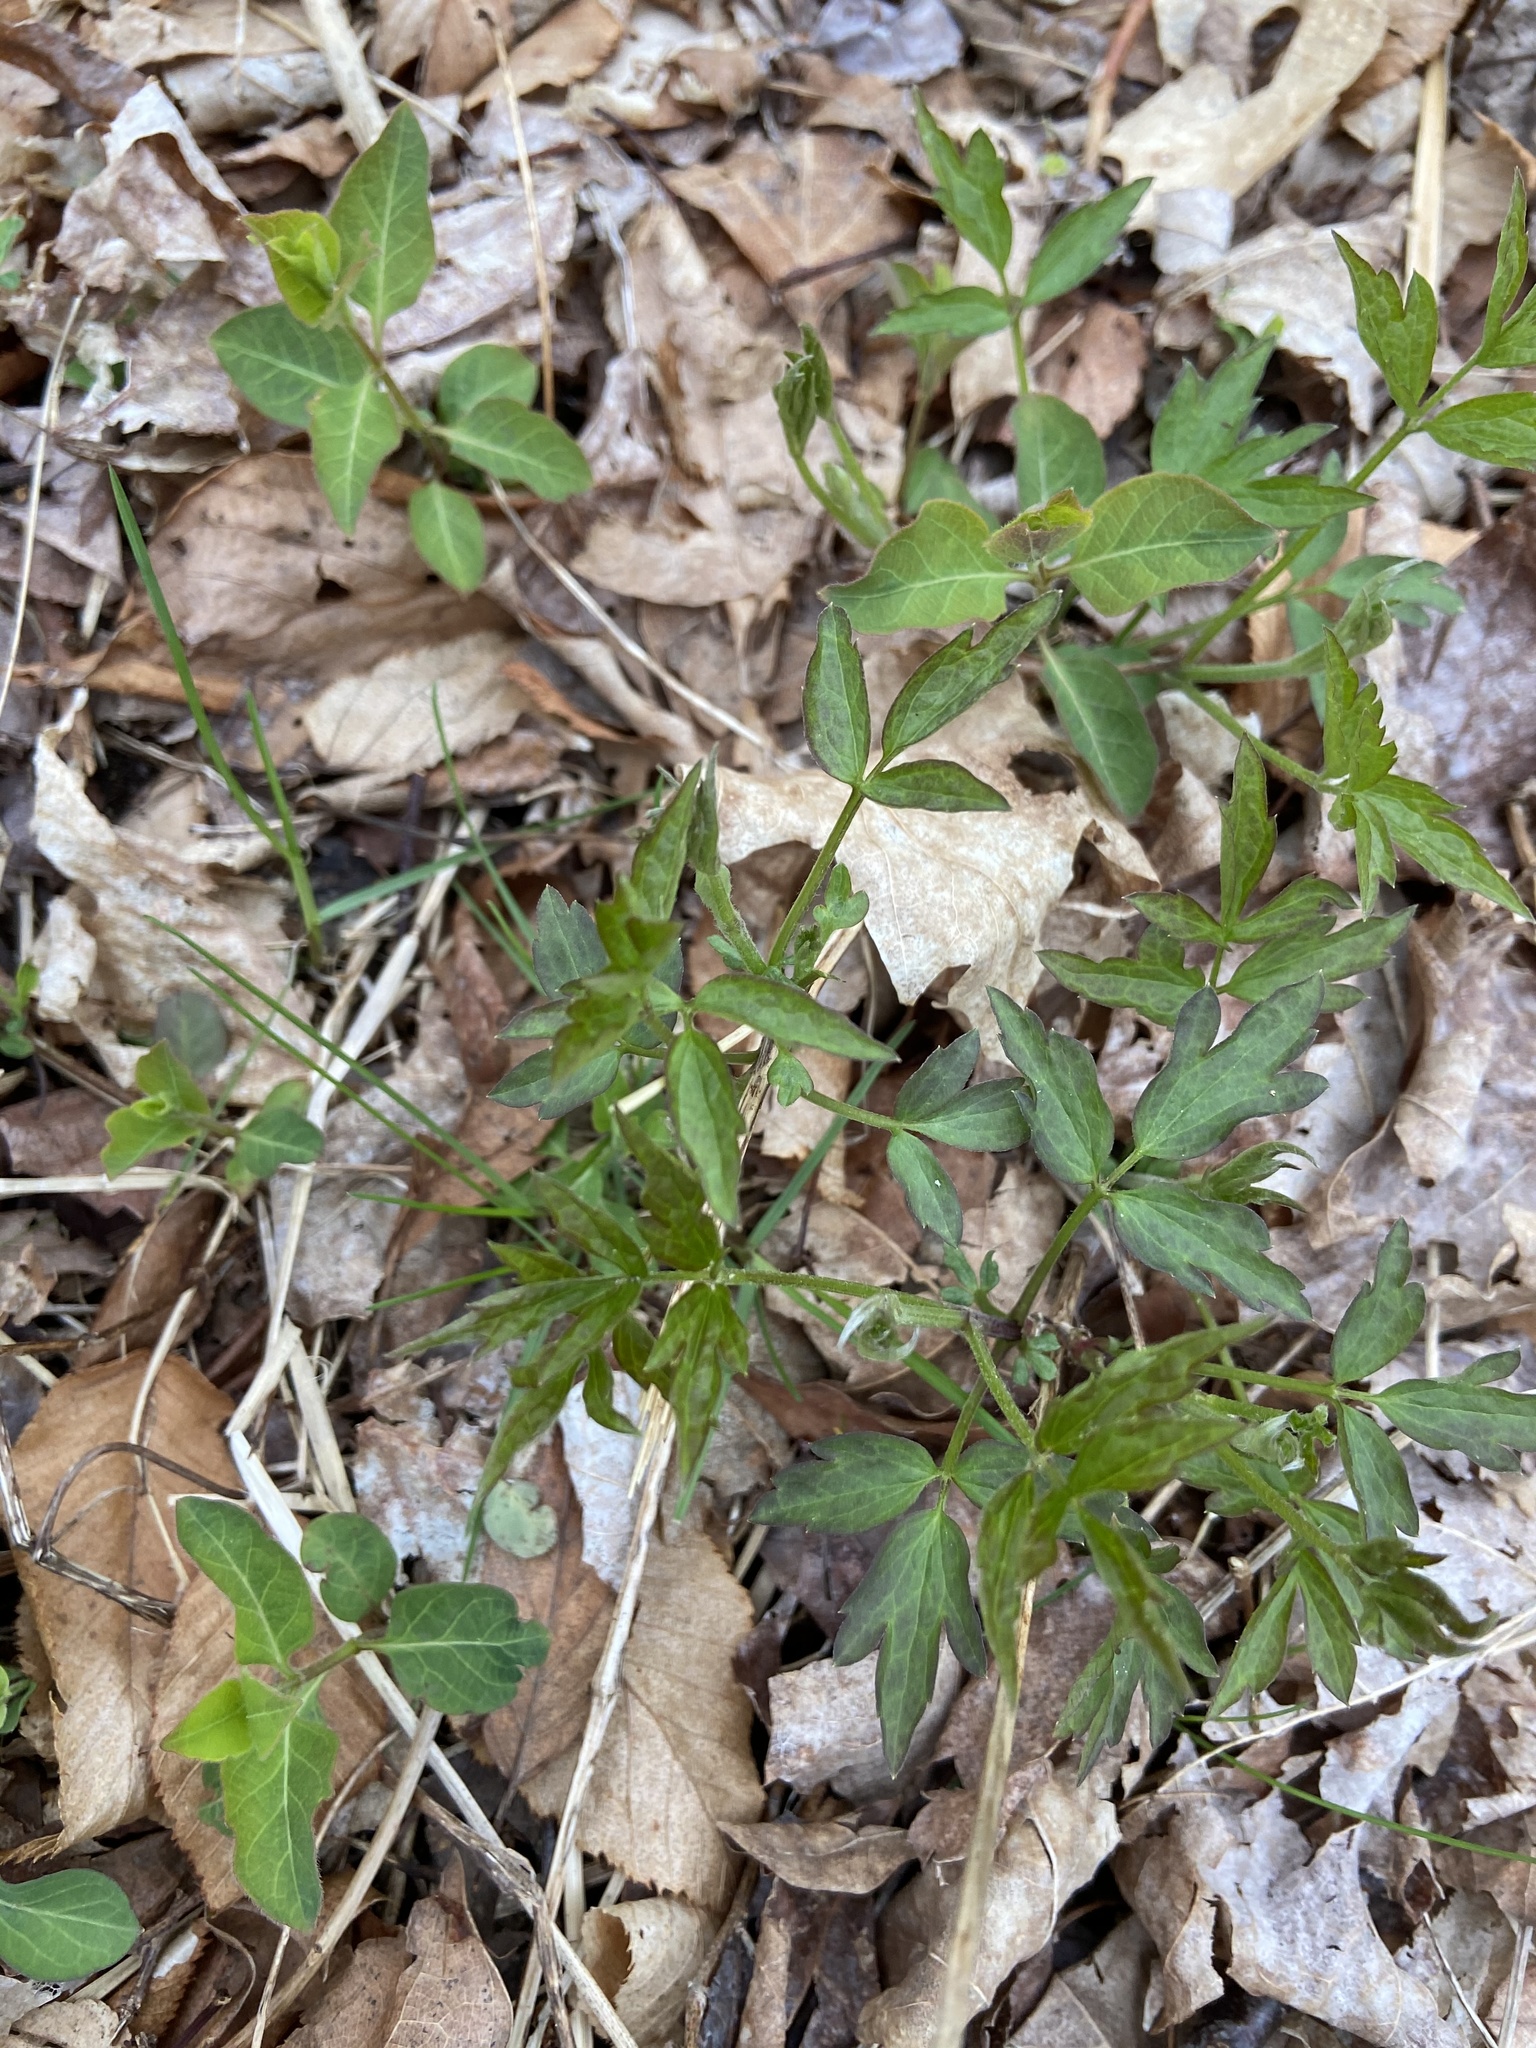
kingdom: Plantae
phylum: Tracheophyta
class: Magnoliopsida
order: Asterales
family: Asteraceae
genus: Rudbeckia
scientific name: Rudbeckia laciniata
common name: Coneflower
